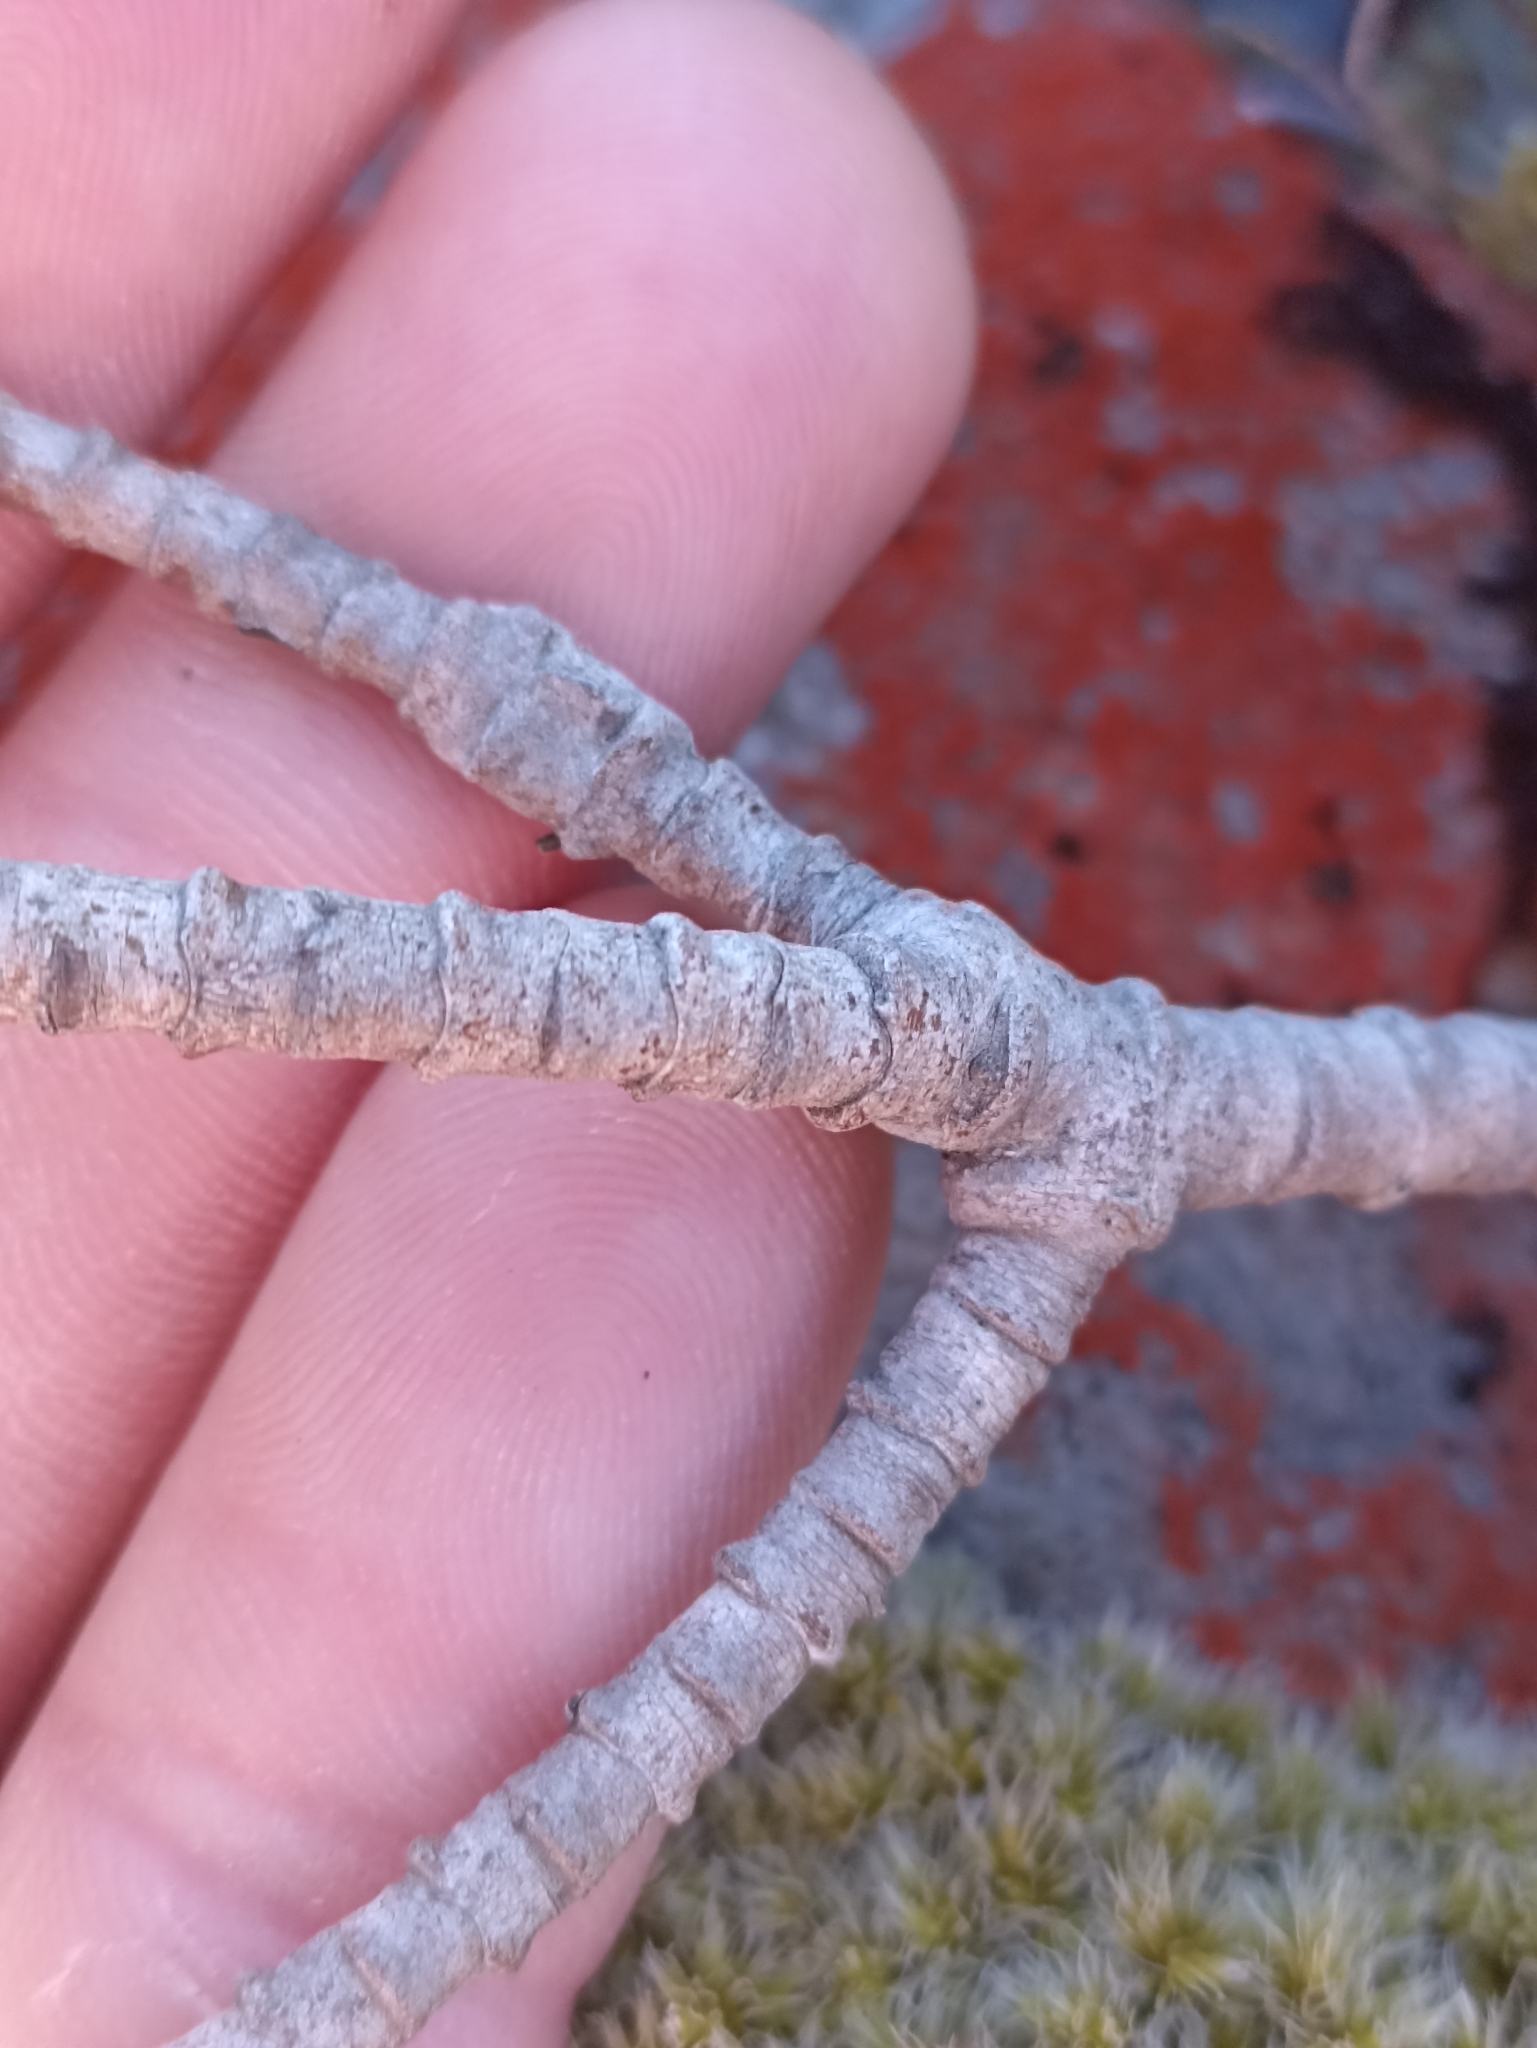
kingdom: Plantae
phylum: Tracheophyta
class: Magnoliopsida
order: Lamiales
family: Plantaginaceae
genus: Veronica
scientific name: Veronica venustula
